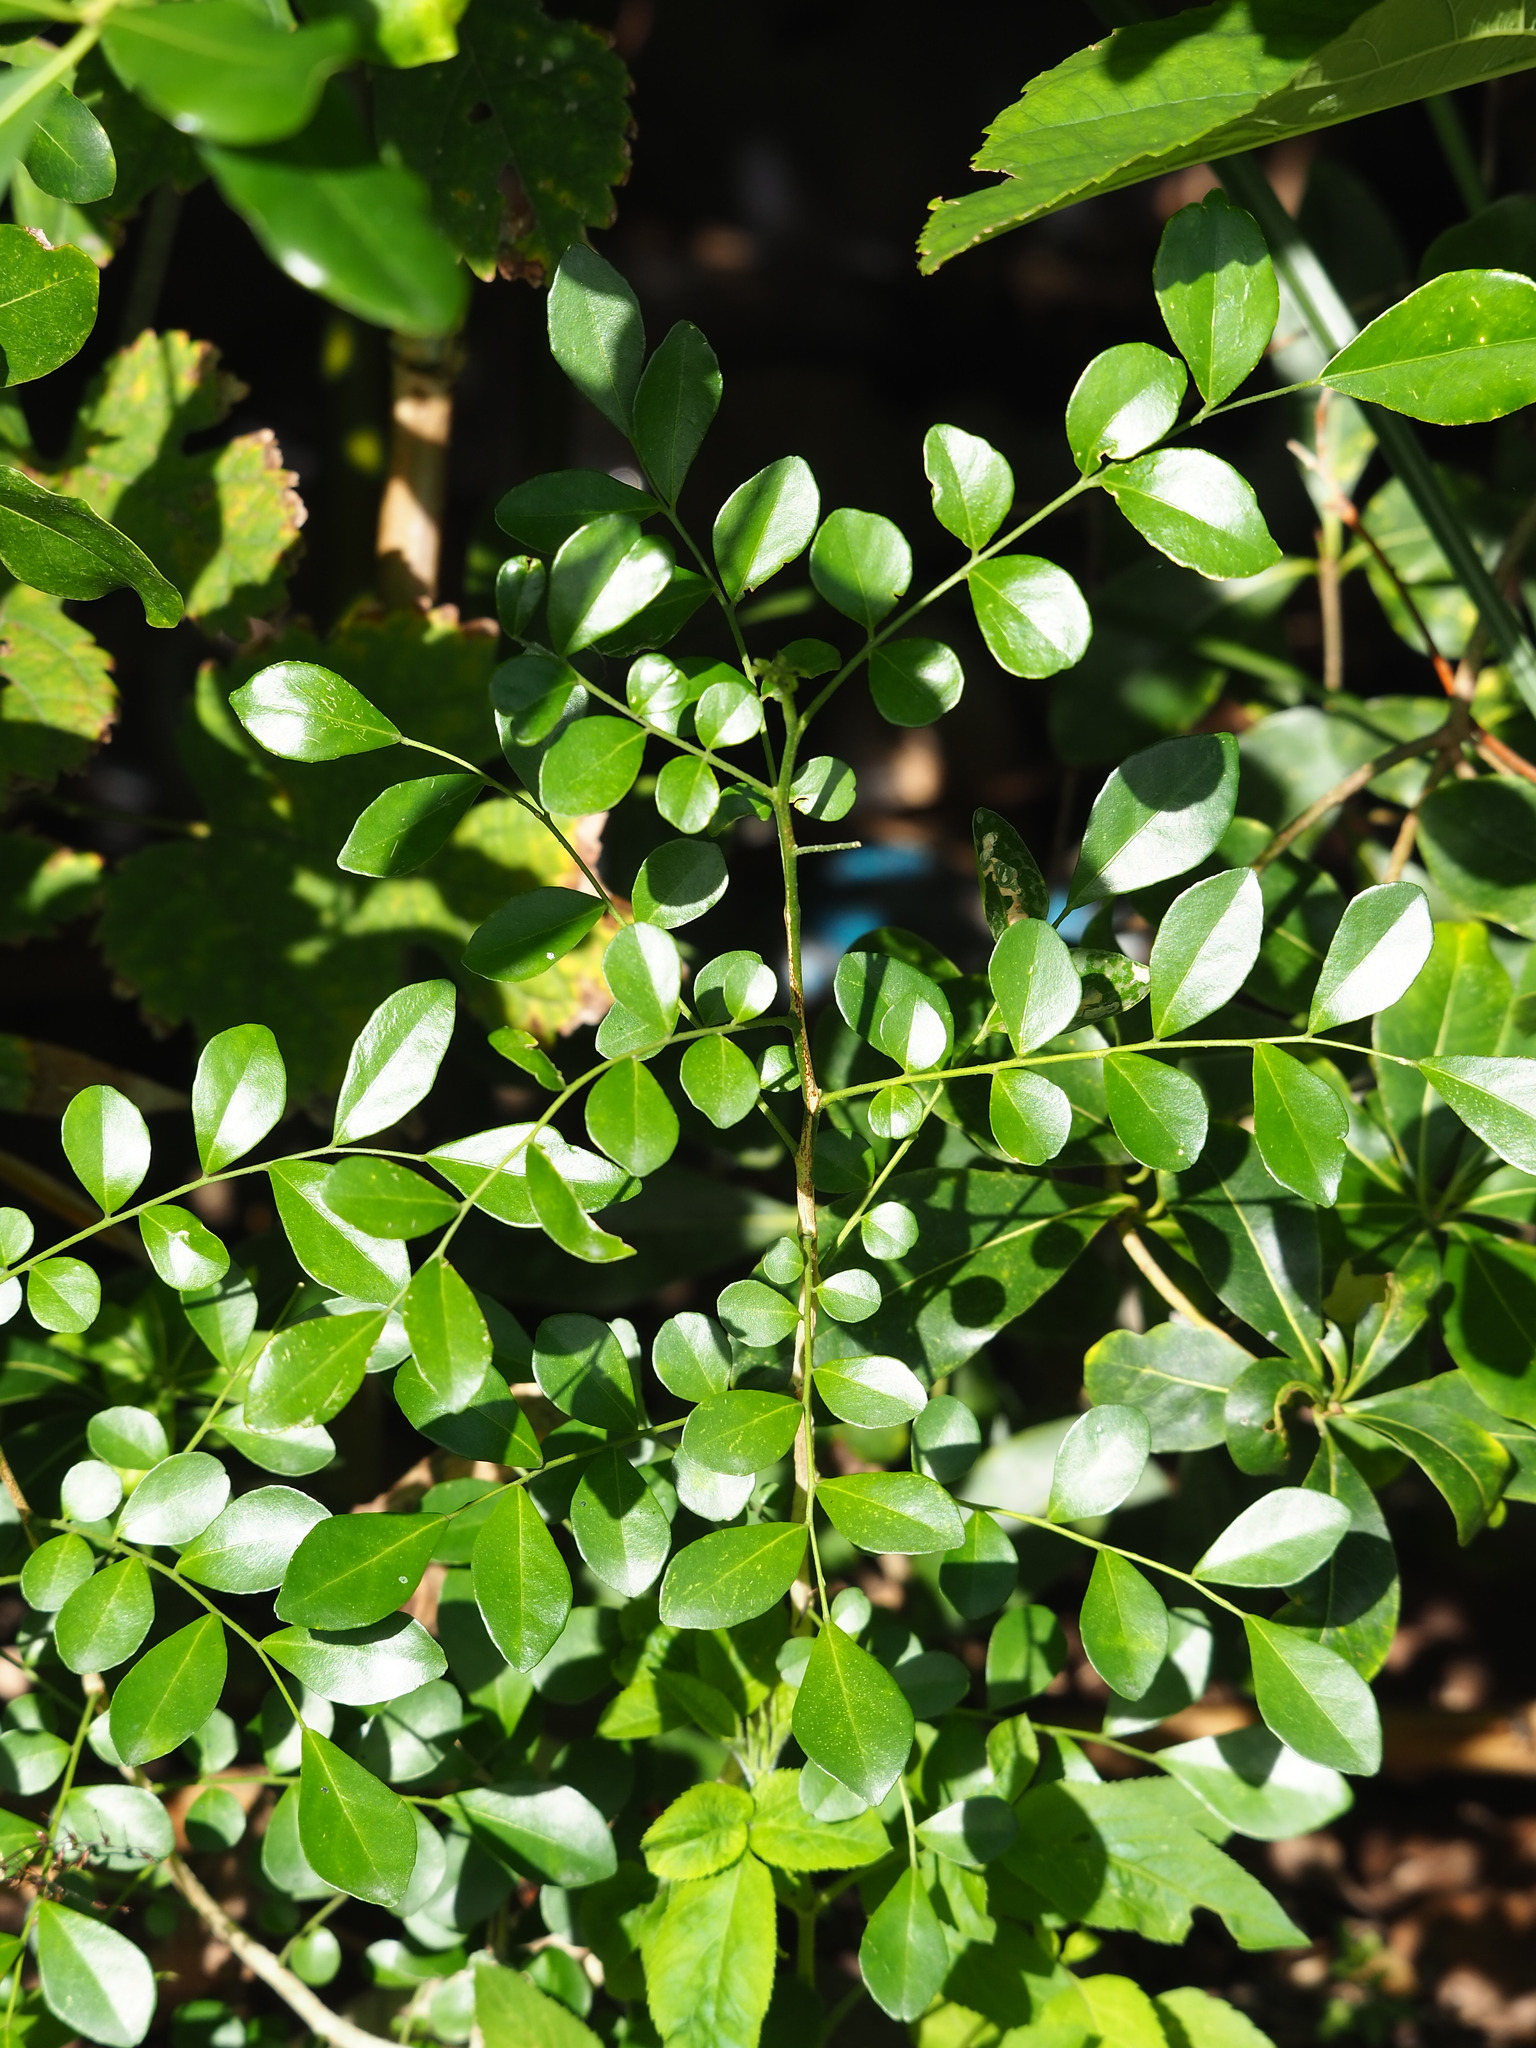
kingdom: Plantae
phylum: Tracheophyta
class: Magnoliopsida
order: Sapindales
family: Rutaceae
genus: Murraya
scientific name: Murraya paniculata
